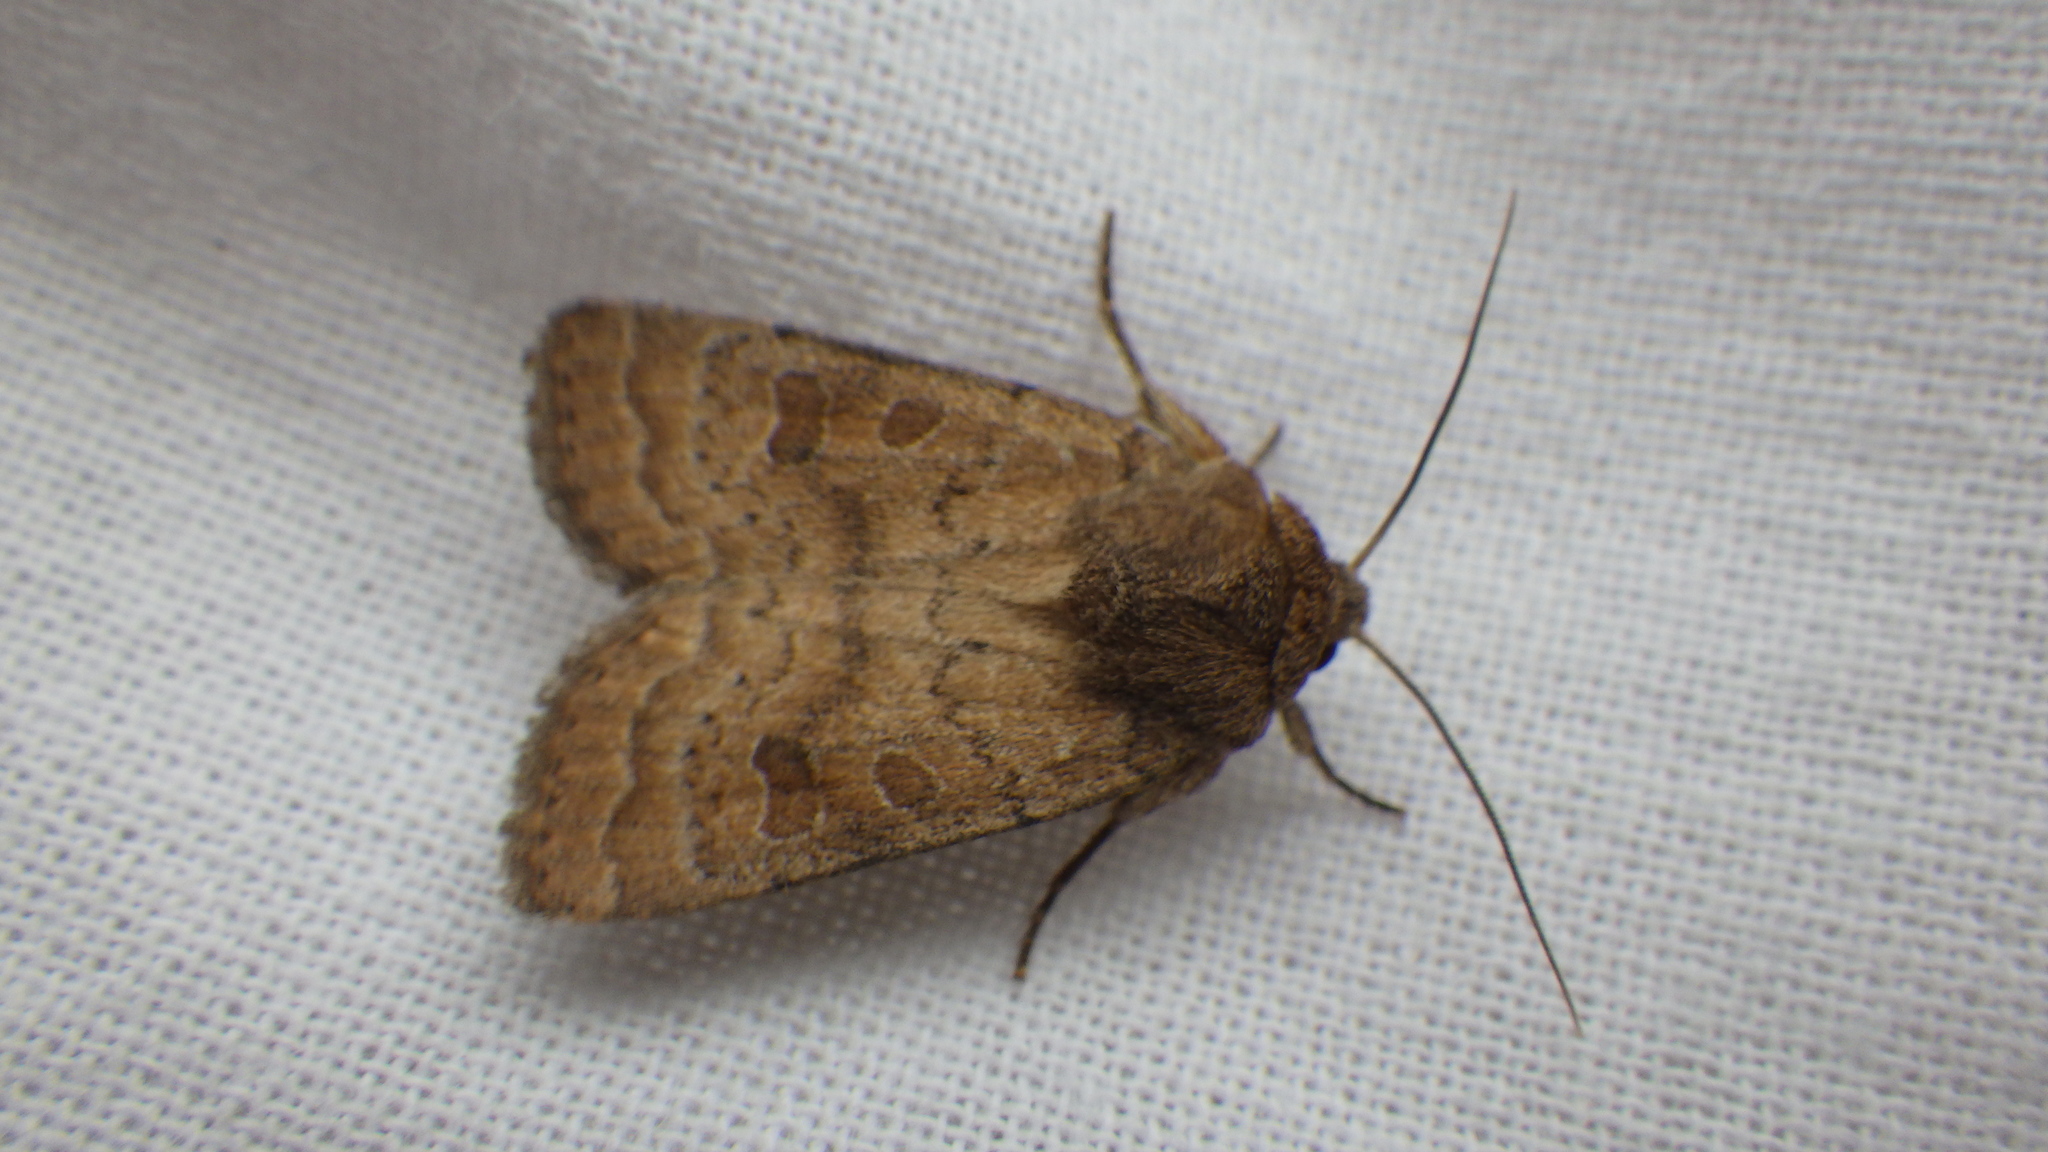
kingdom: Animalia
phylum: Arthropoda
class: Insecta
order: Lepidoptera
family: Noctuidae
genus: Hoplodrina
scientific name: Hoplodrina octogenaria
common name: Uncertain
